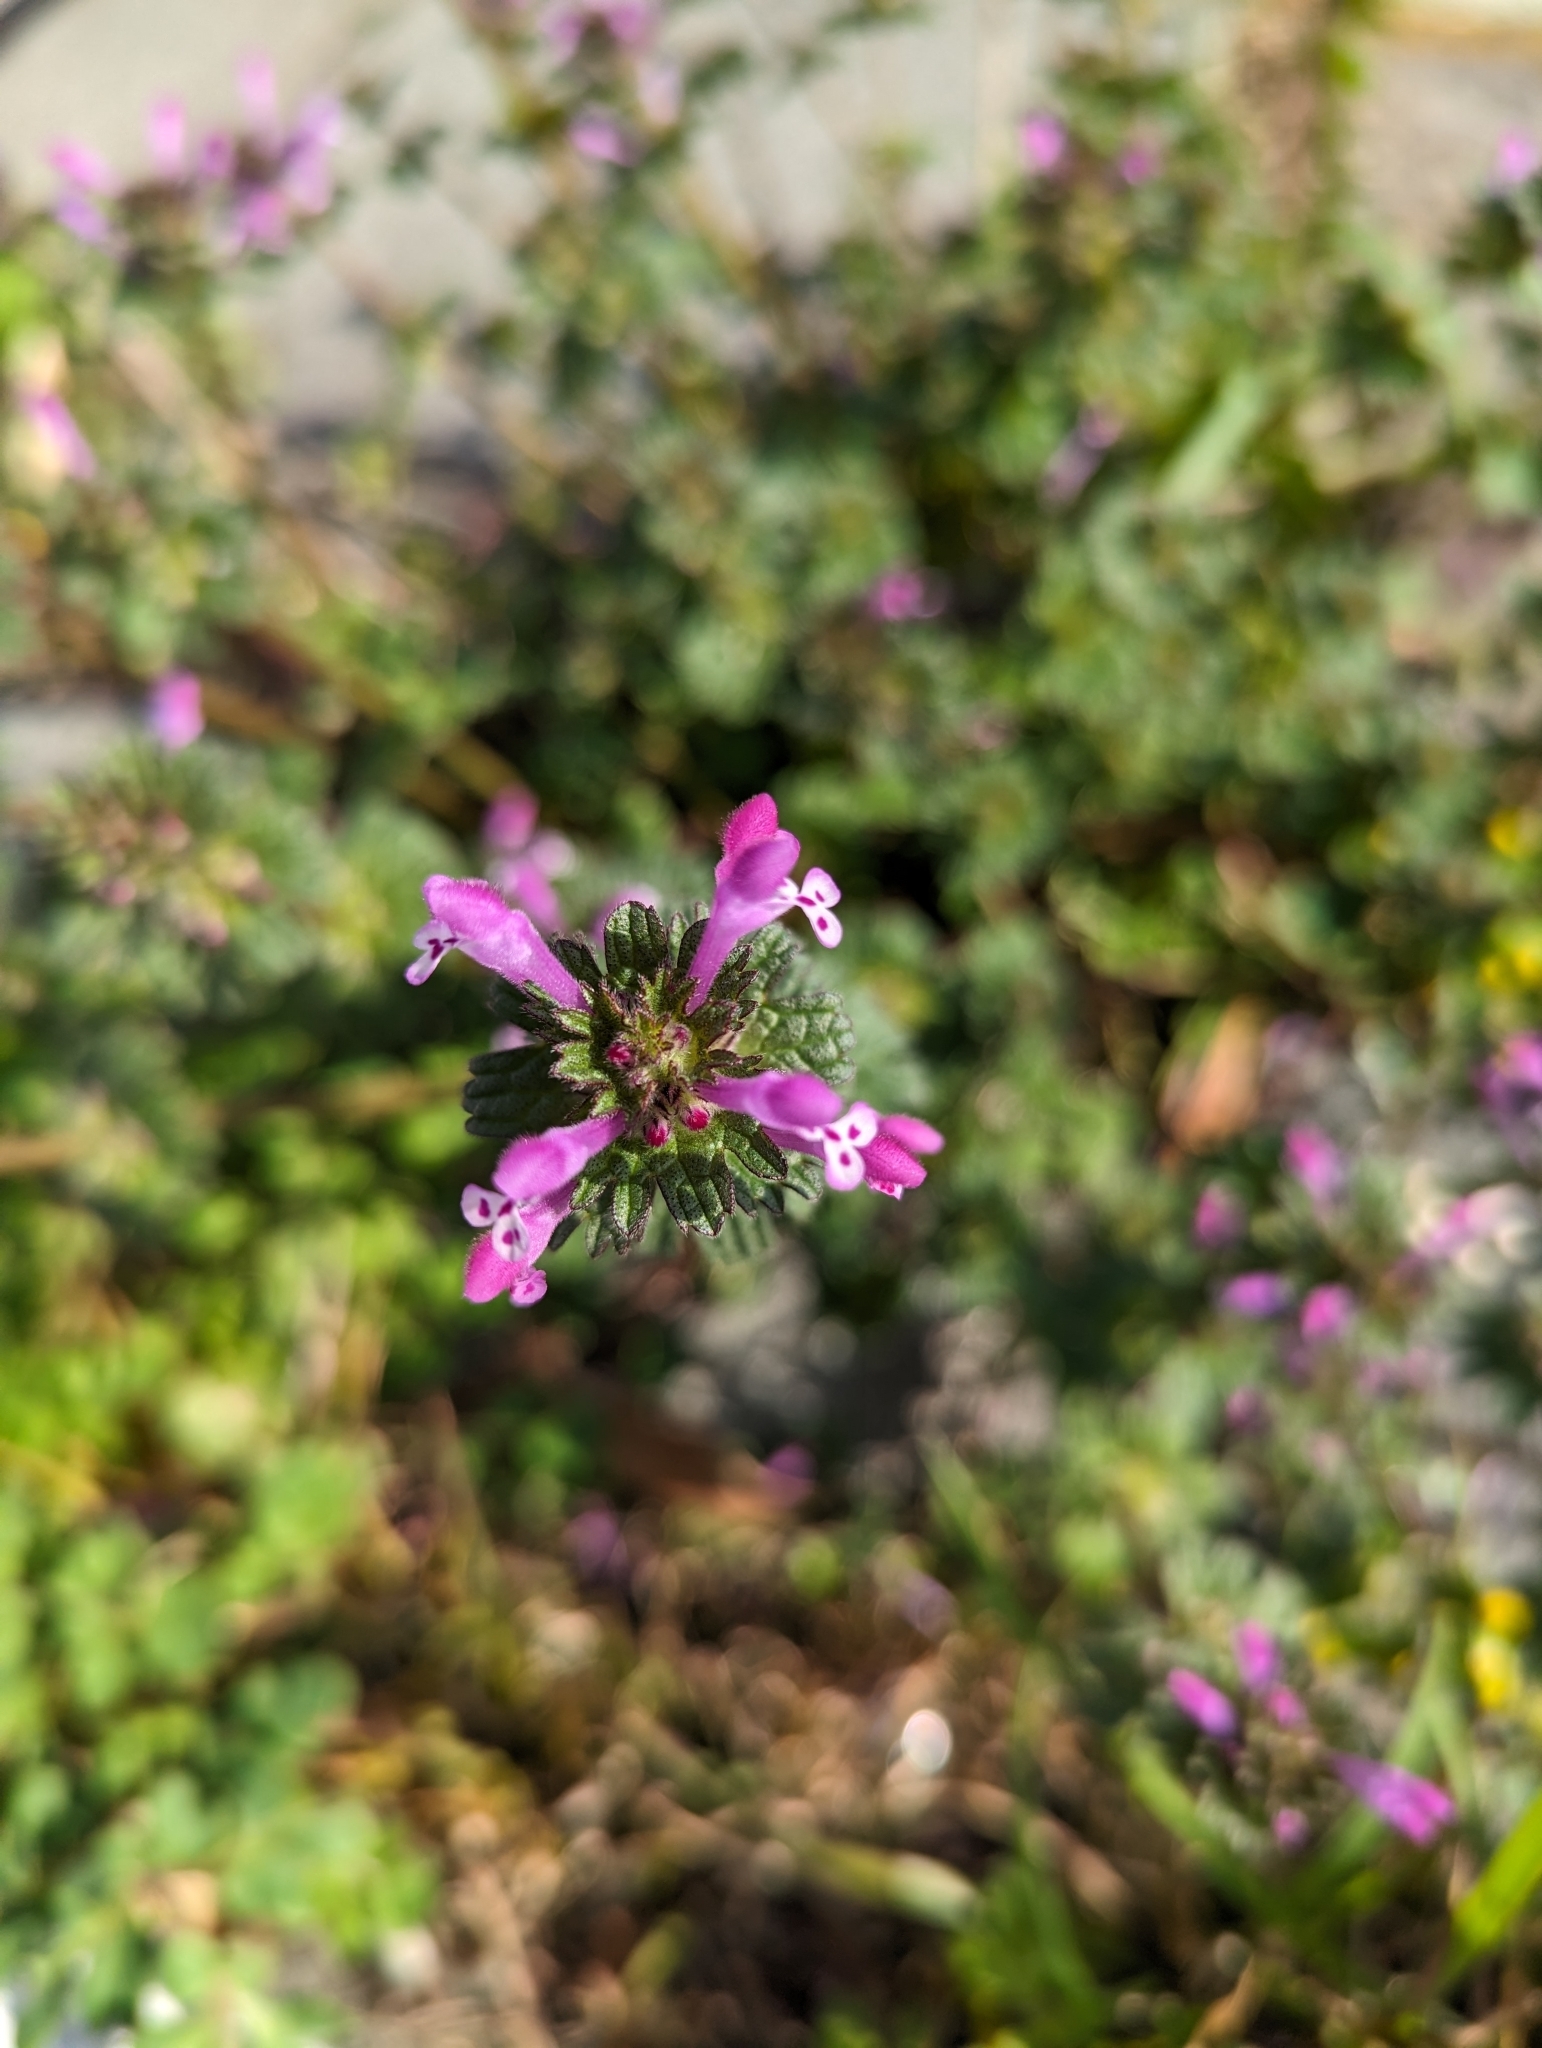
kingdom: Plantae
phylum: Tracheophyta
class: Magnoliopsida
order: Lamiales
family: Lamiaceae
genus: Lamium
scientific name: Lamium amplexicaule
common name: Henbit dead-nettle
